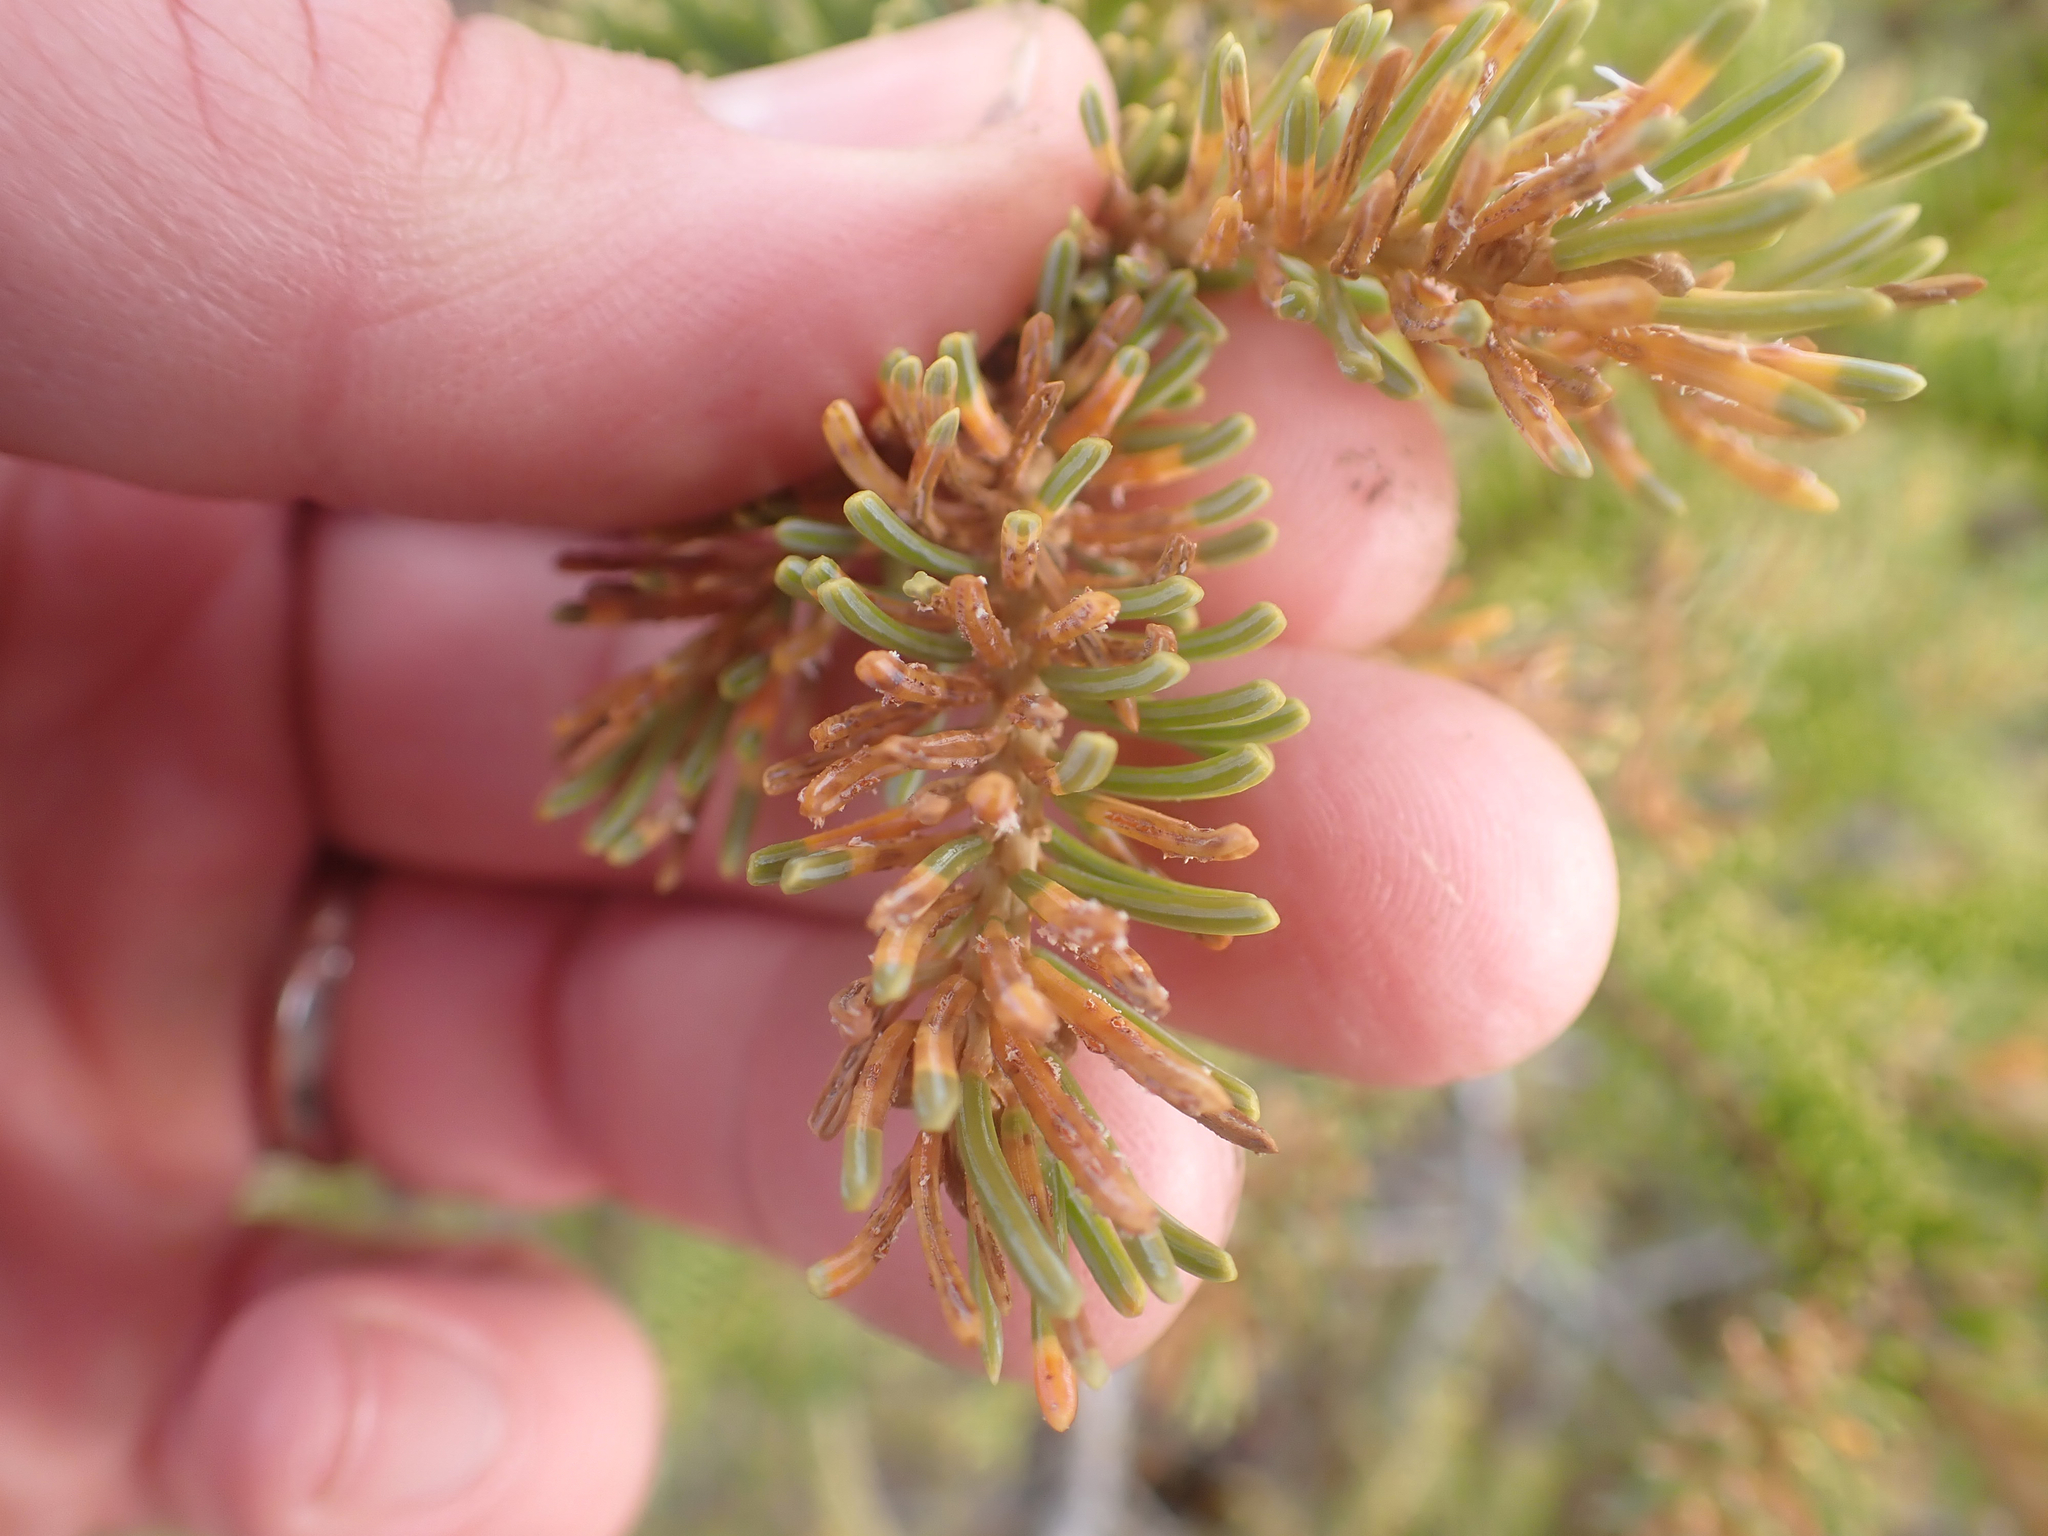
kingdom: Fungi
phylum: Basidiomycota
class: Pucciniomycetes
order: Pucciniales
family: Coleosporiaceae
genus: Chrysomyxa
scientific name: Chrysomyxa ledicola
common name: Spruce-labrador tea needle rust
